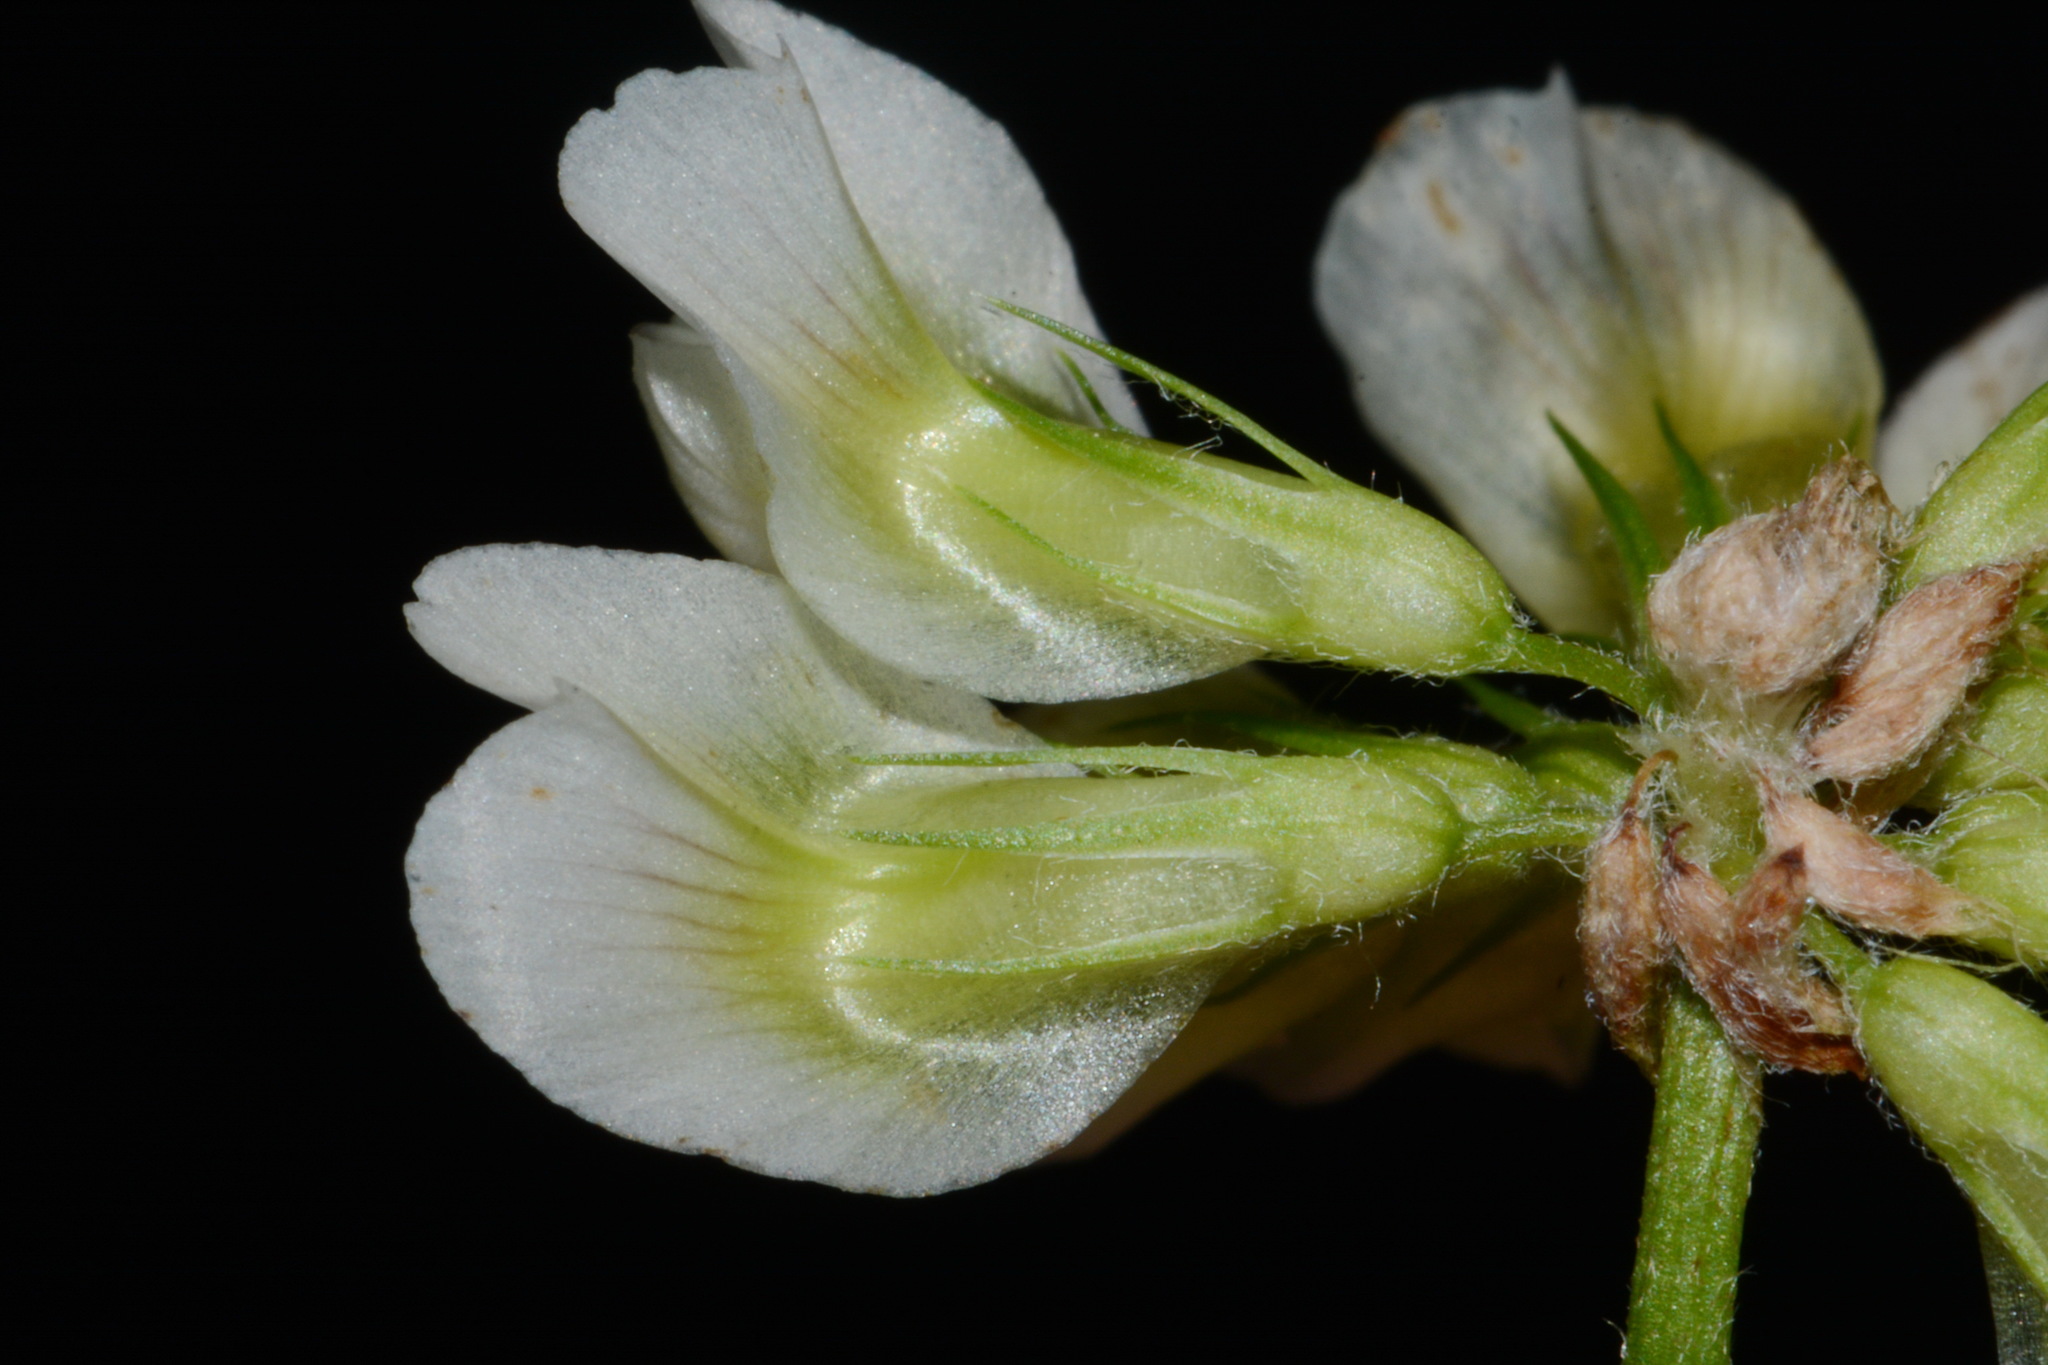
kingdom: Plantae
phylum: Tracheophyta
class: Magnoliopsida
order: Fabales
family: Fabaceae
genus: Trifolium
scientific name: Trifolium calcaricum
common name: Limestone clover
